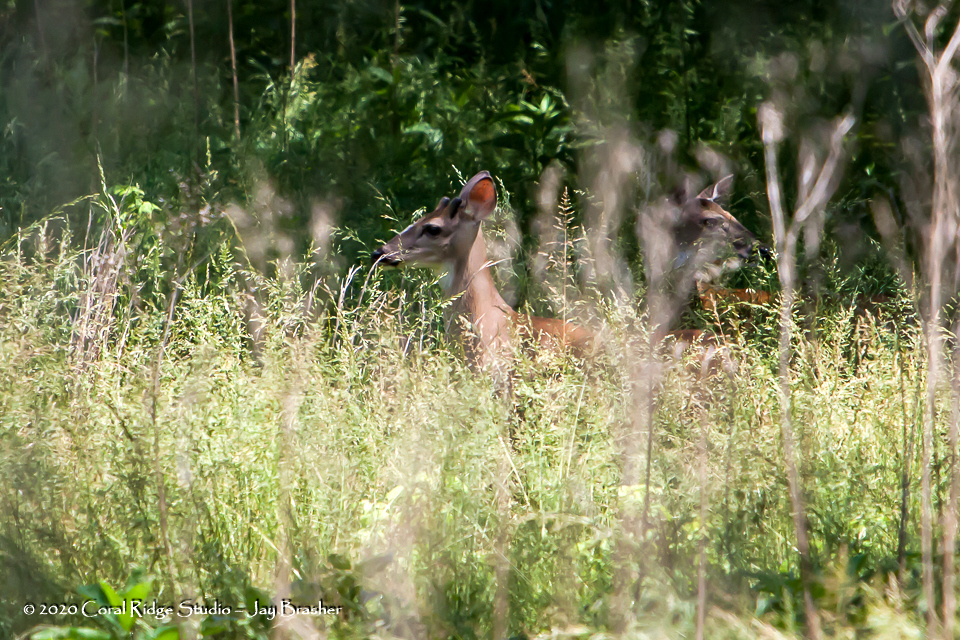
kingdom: Animalia
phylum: Chordata
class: Mammalia
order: Artiodactyla
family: Cervidae
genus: Odocoileus
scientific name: Odocoileus virginianus
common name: White-tailed deer
